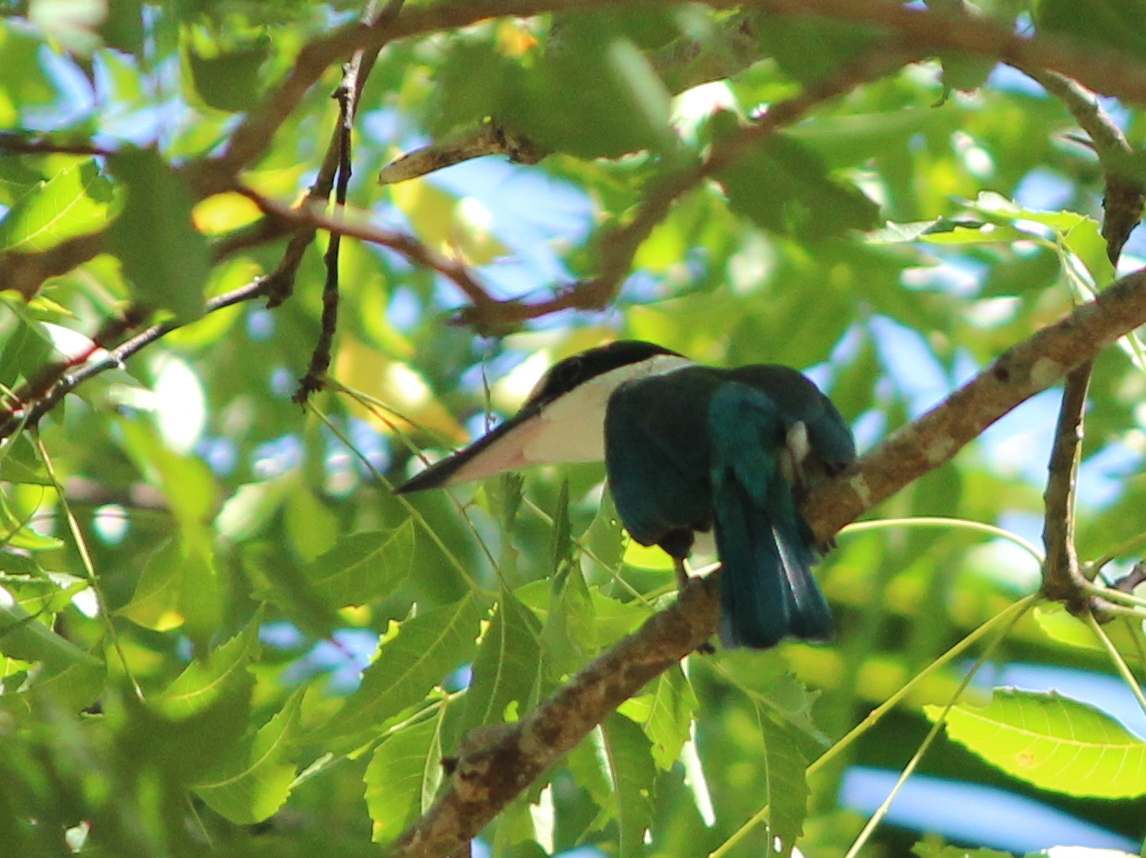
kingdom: Animalia
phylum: Chordata
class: Aves
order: Coraciiformes
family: Alcedinidae
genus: Todiramphus
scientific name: Todiramphus chloris
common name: Collared kingfisher
